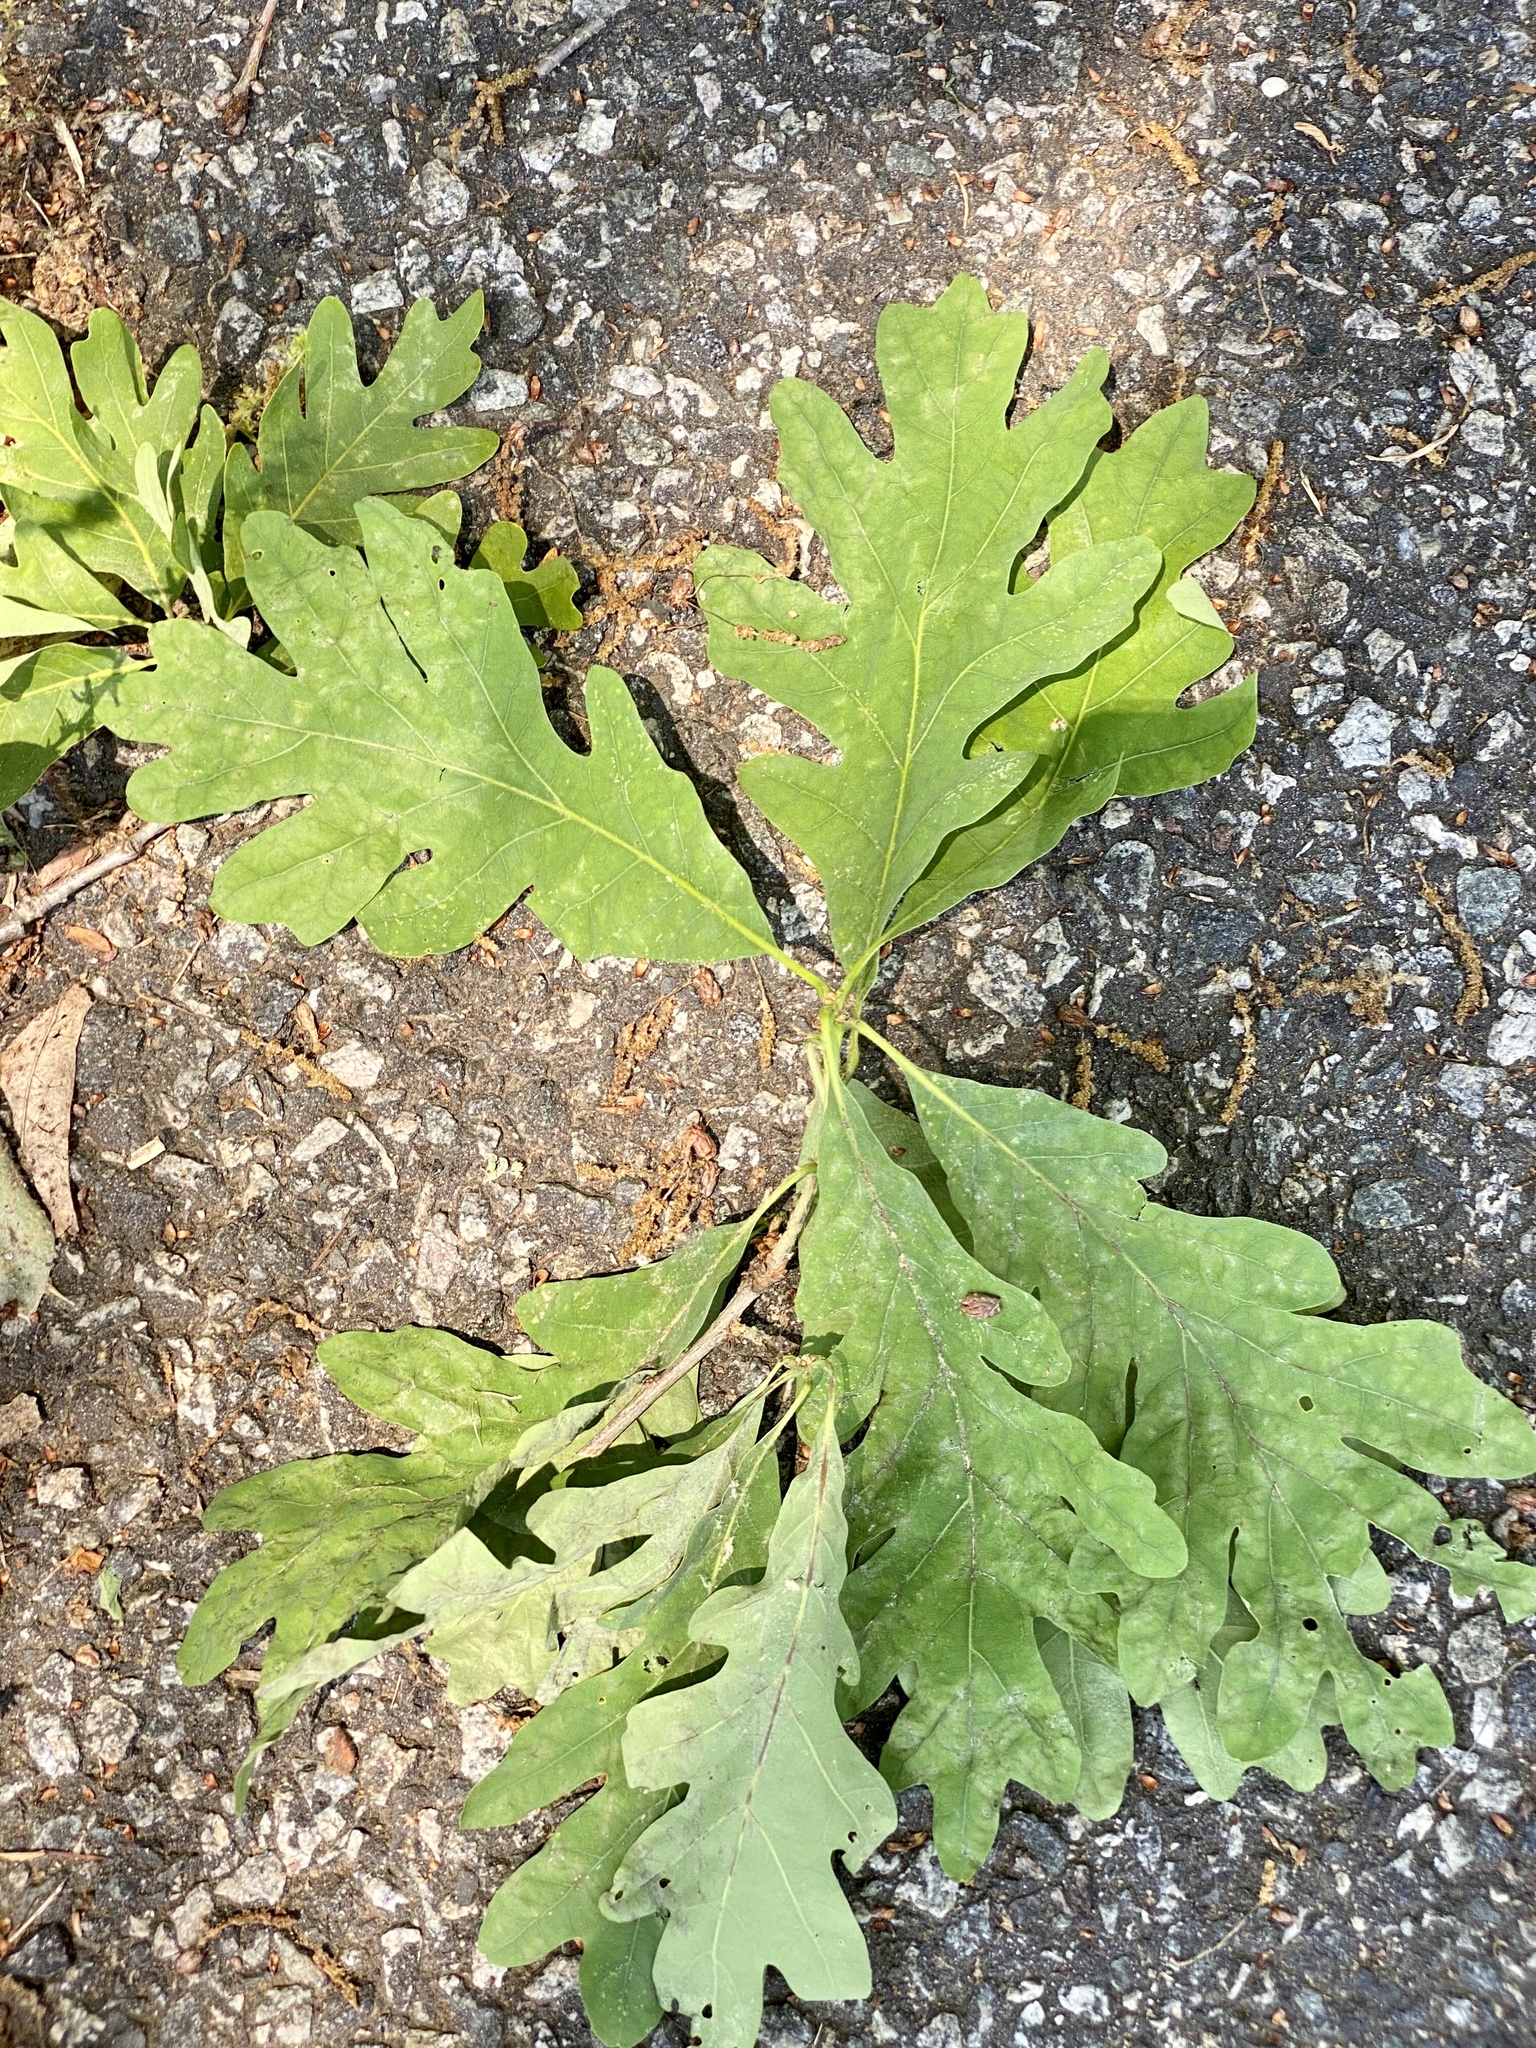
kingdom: Plantae
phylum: Tracheophyta
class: Magnoliopsida
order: Fagales
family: Fagaceae
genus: Quercus
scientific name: Quercus alba
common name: White oak
